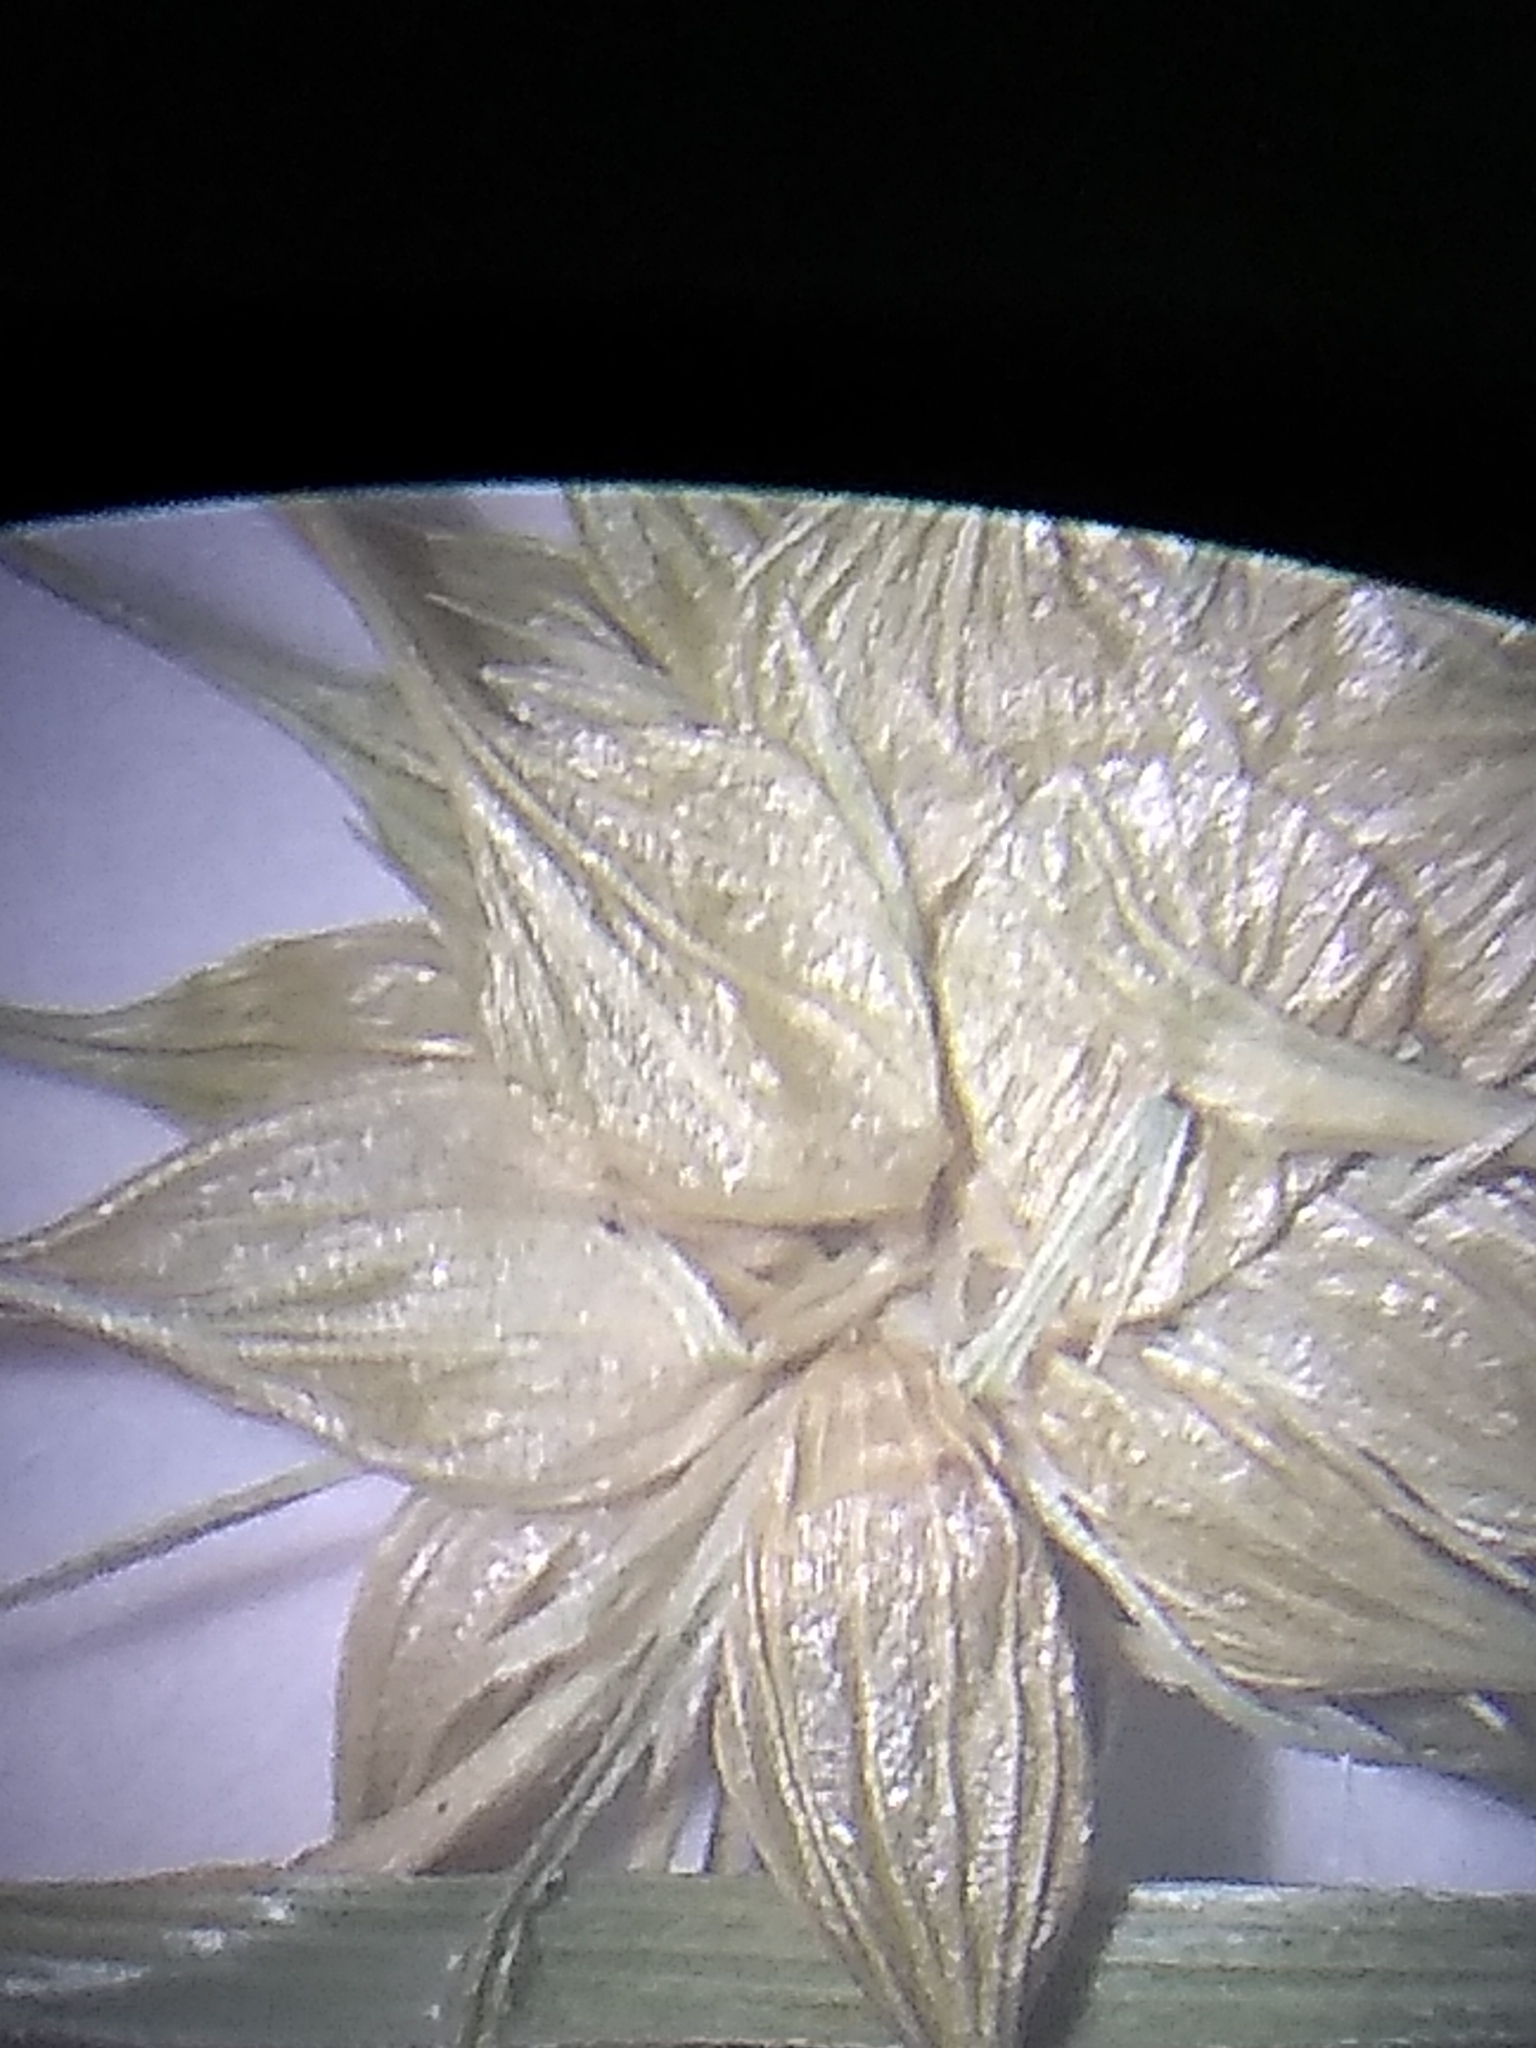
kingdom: Plantae
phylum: Tracheophyta
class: Liliopsida
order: Poales
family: Cyperaceae
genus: Carex
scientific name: Carex hystericina
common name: Bottlebrush sedge
